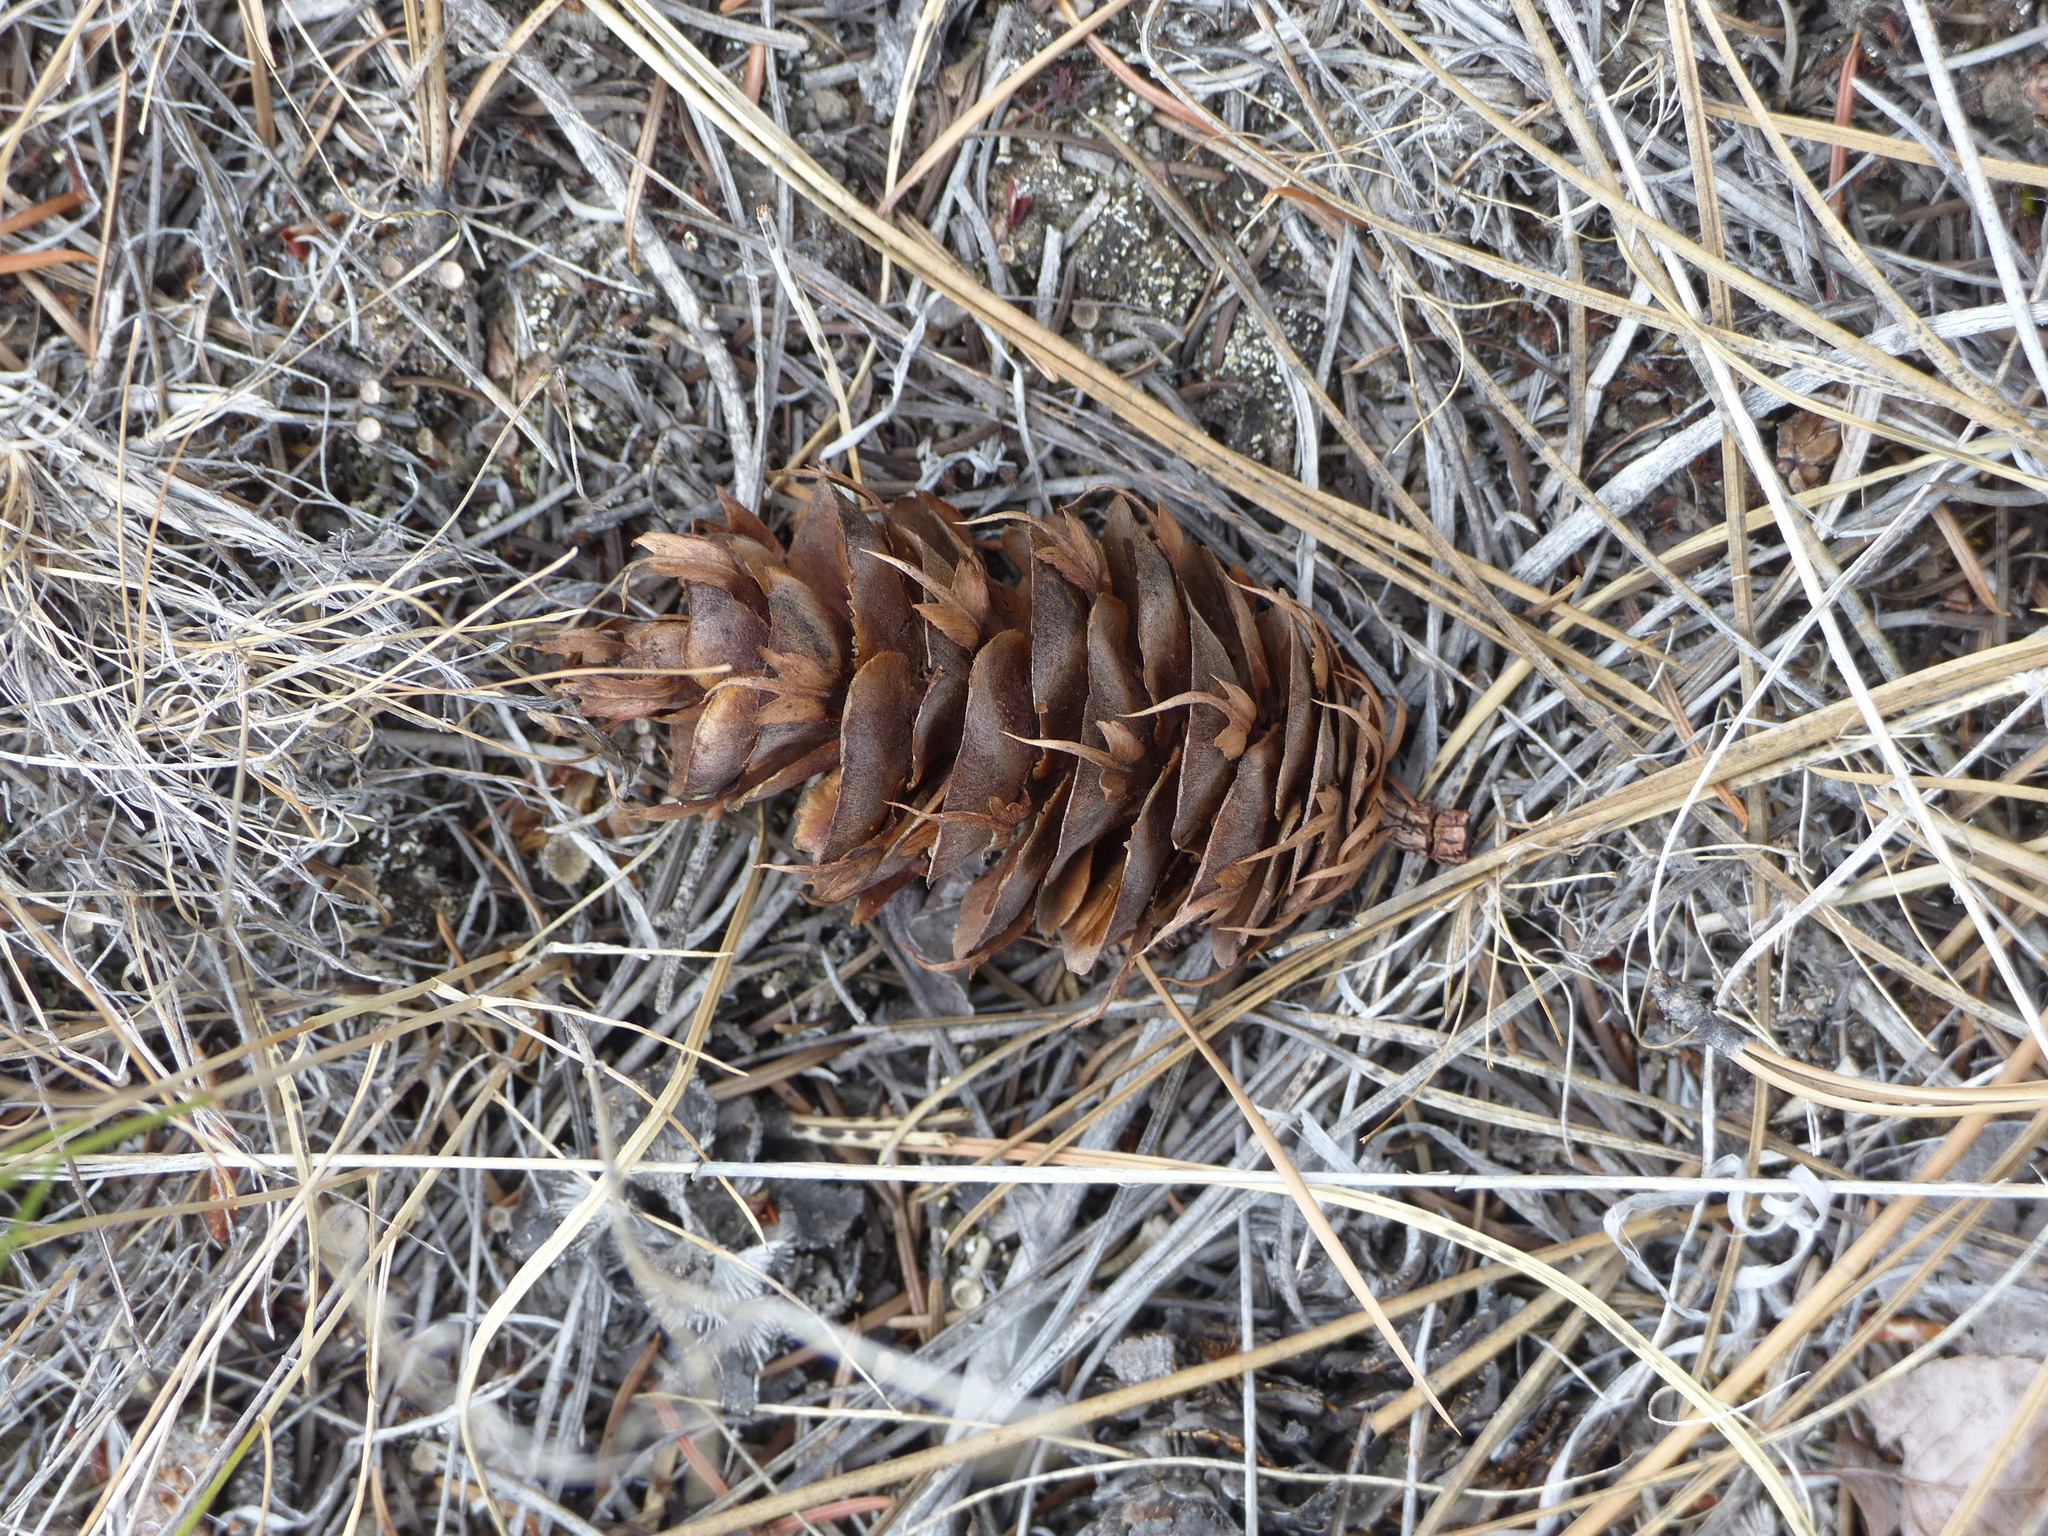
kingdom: Plantae
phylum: Tracheophyta
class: Pinopsida
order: Pinales
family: Pinaceae
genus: Pseudotsuga
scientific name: Pseudotsuga menziesii
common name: Douglas fir
